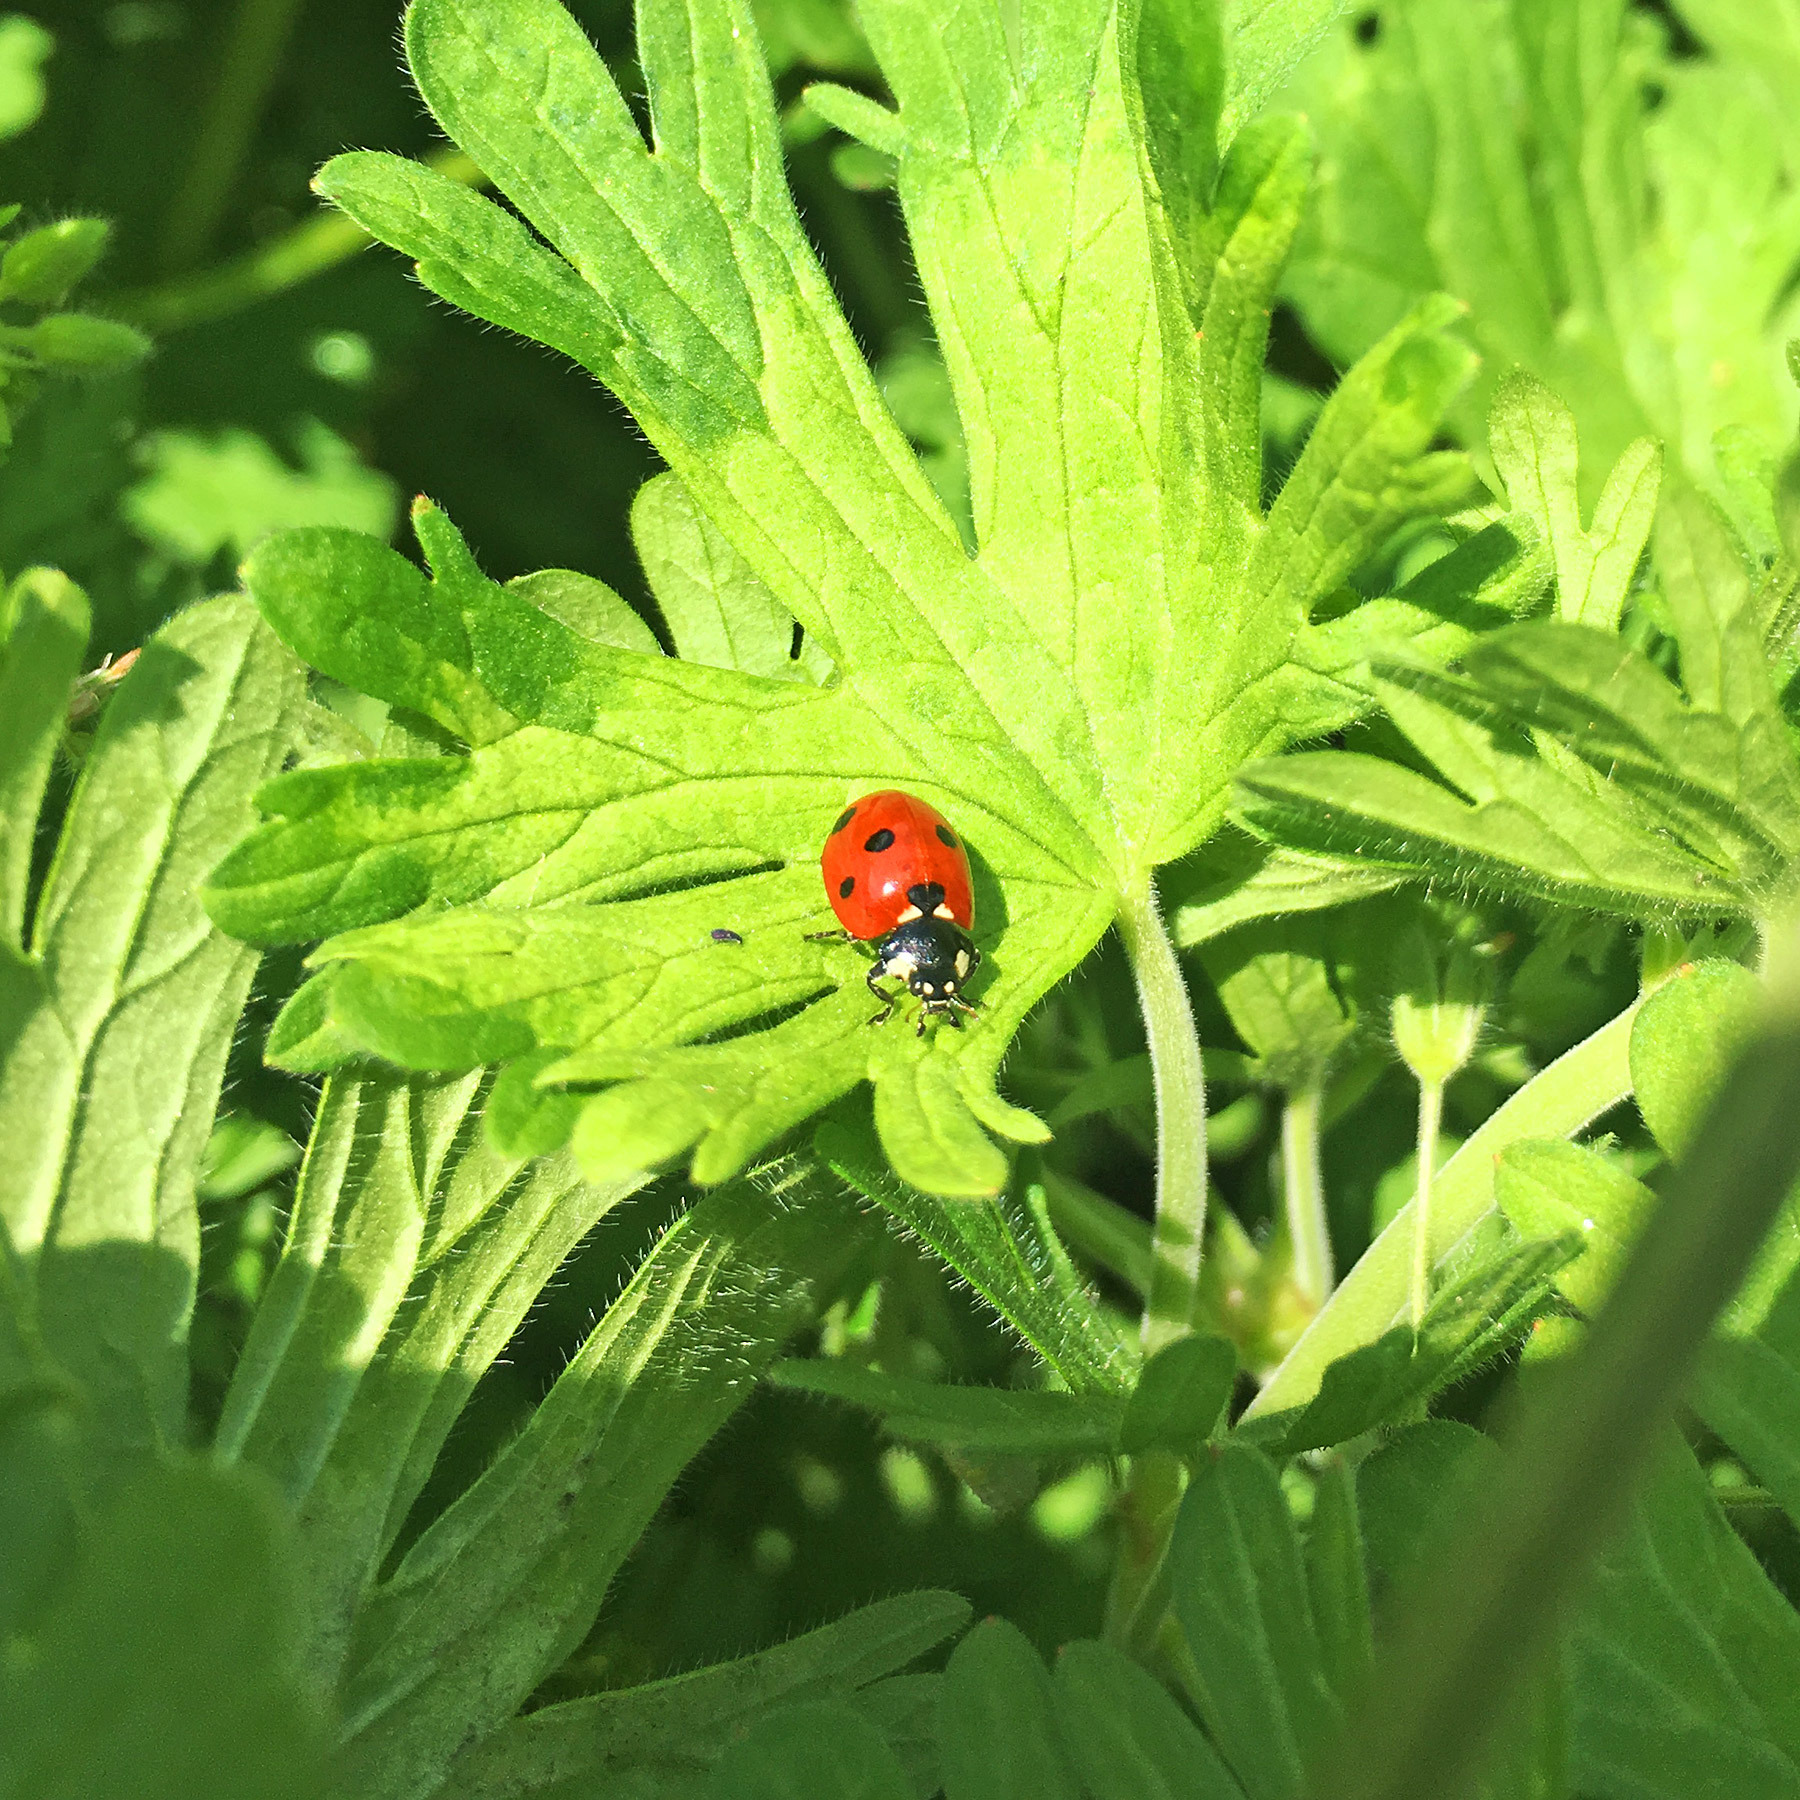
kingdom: Animalia
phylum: Arthropoda
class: Insecta
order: Coleoptera
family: Coccinellidae
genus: Coccinella
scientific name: Coccinella septempunctata
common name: Sevenspotted lady beetle
